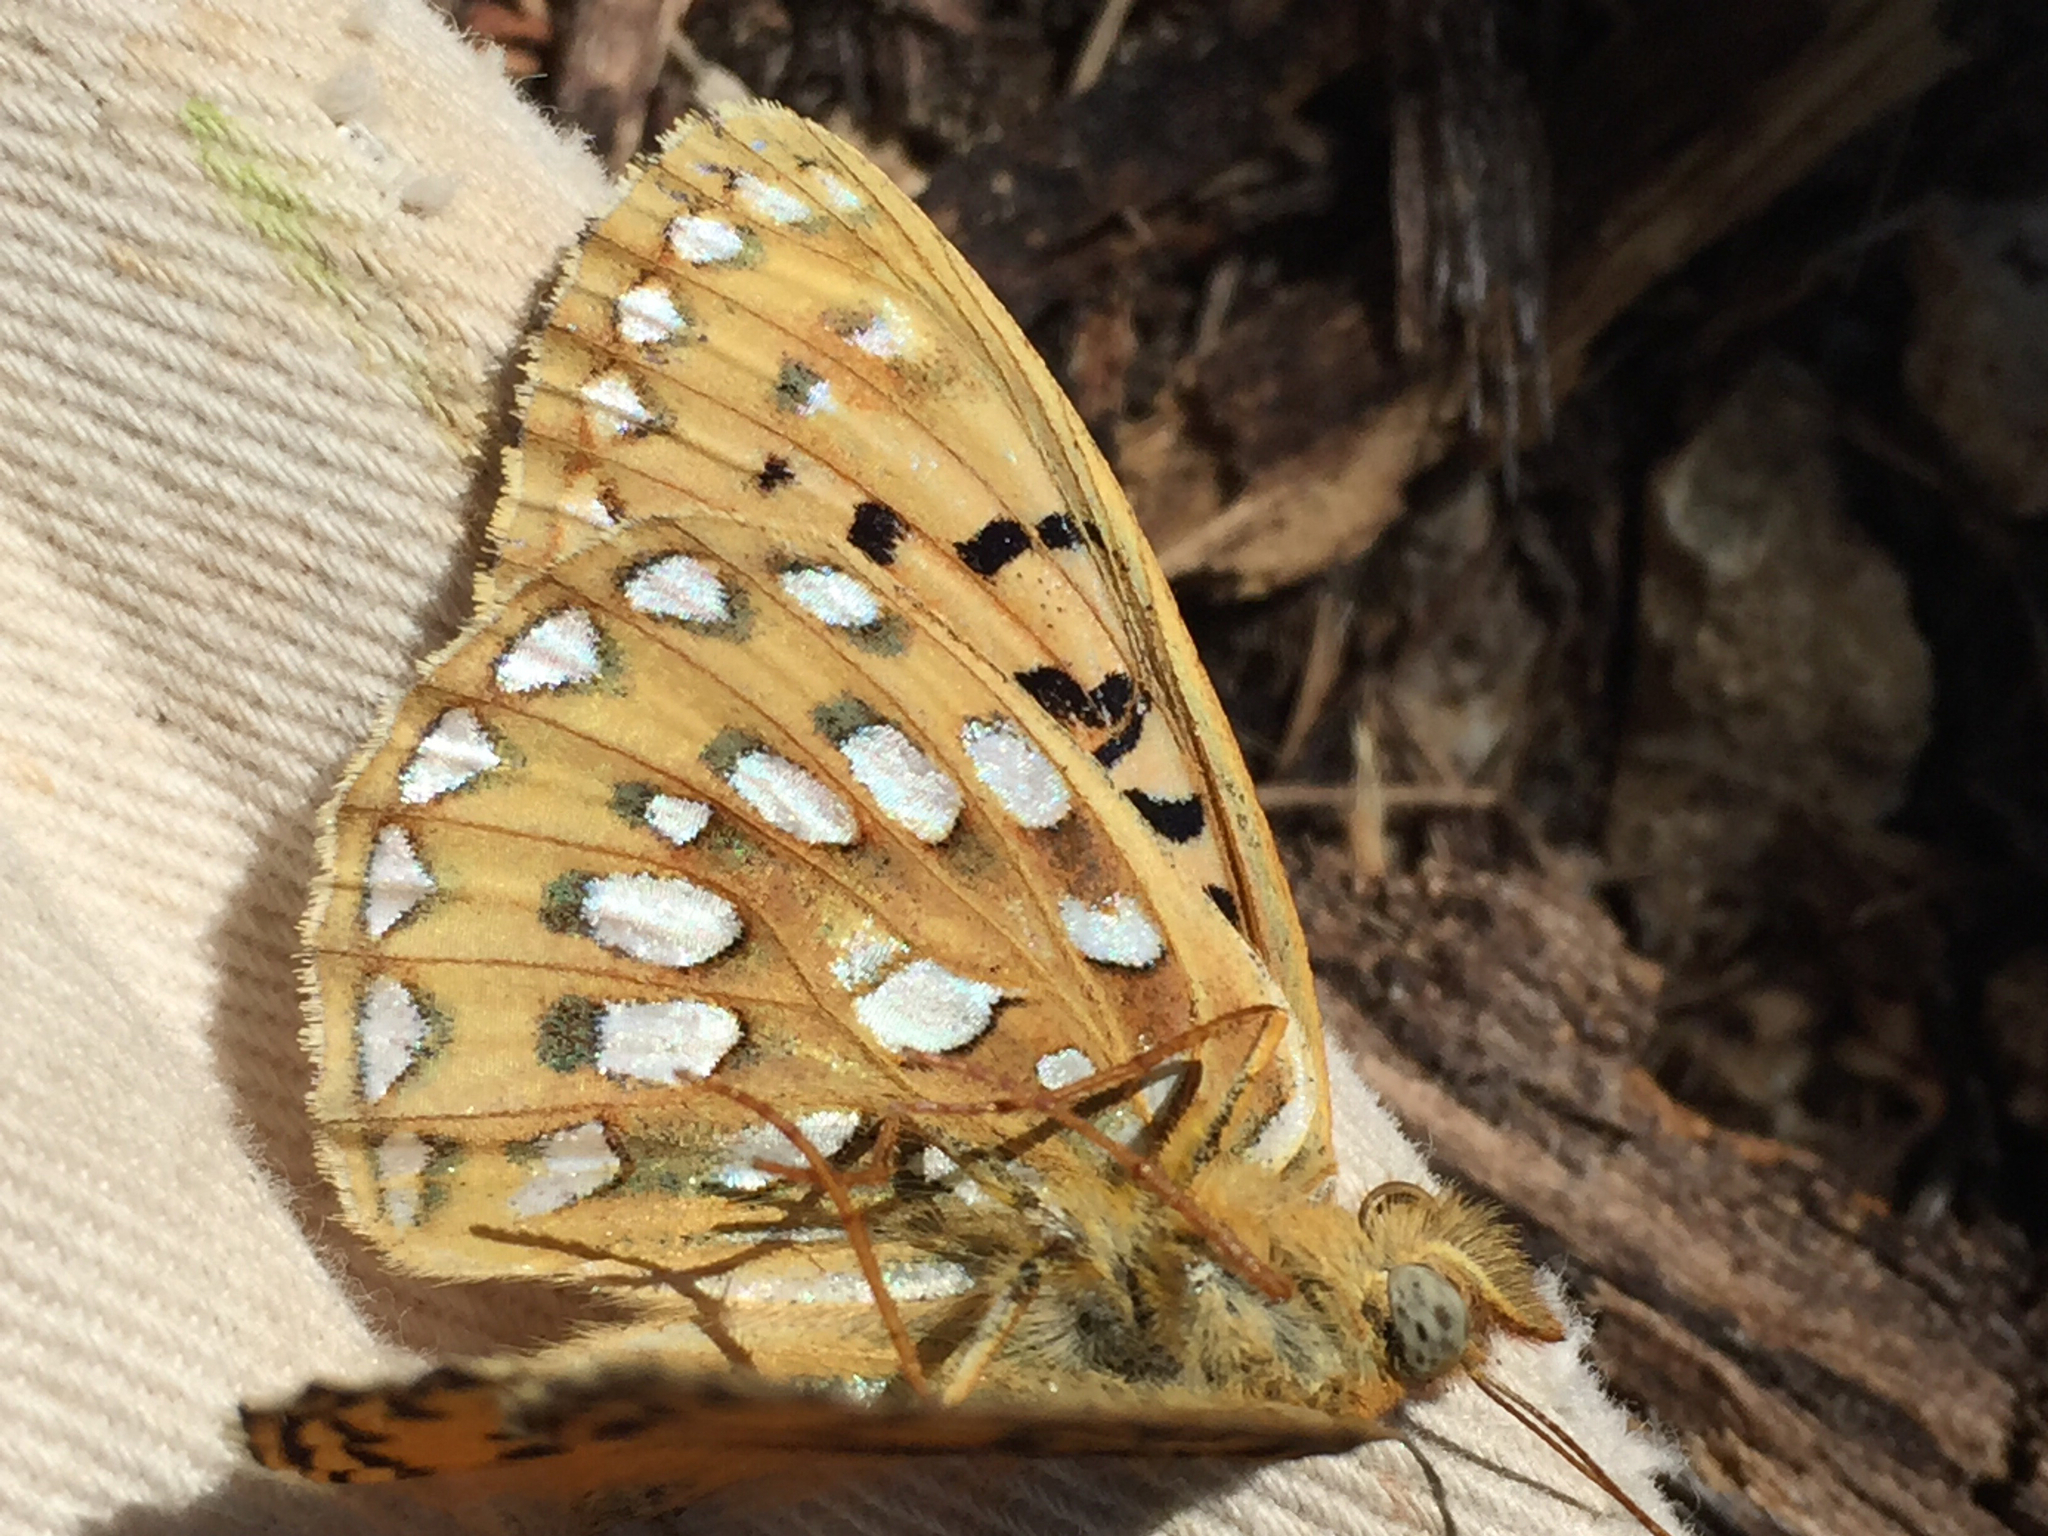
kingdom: Animalia
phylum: Arthropoda
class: Insecta
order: Lepidoptera
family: Nymphalidae
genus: Speyeria
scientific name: Speyeria mormonia
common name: Mormon fritillary
